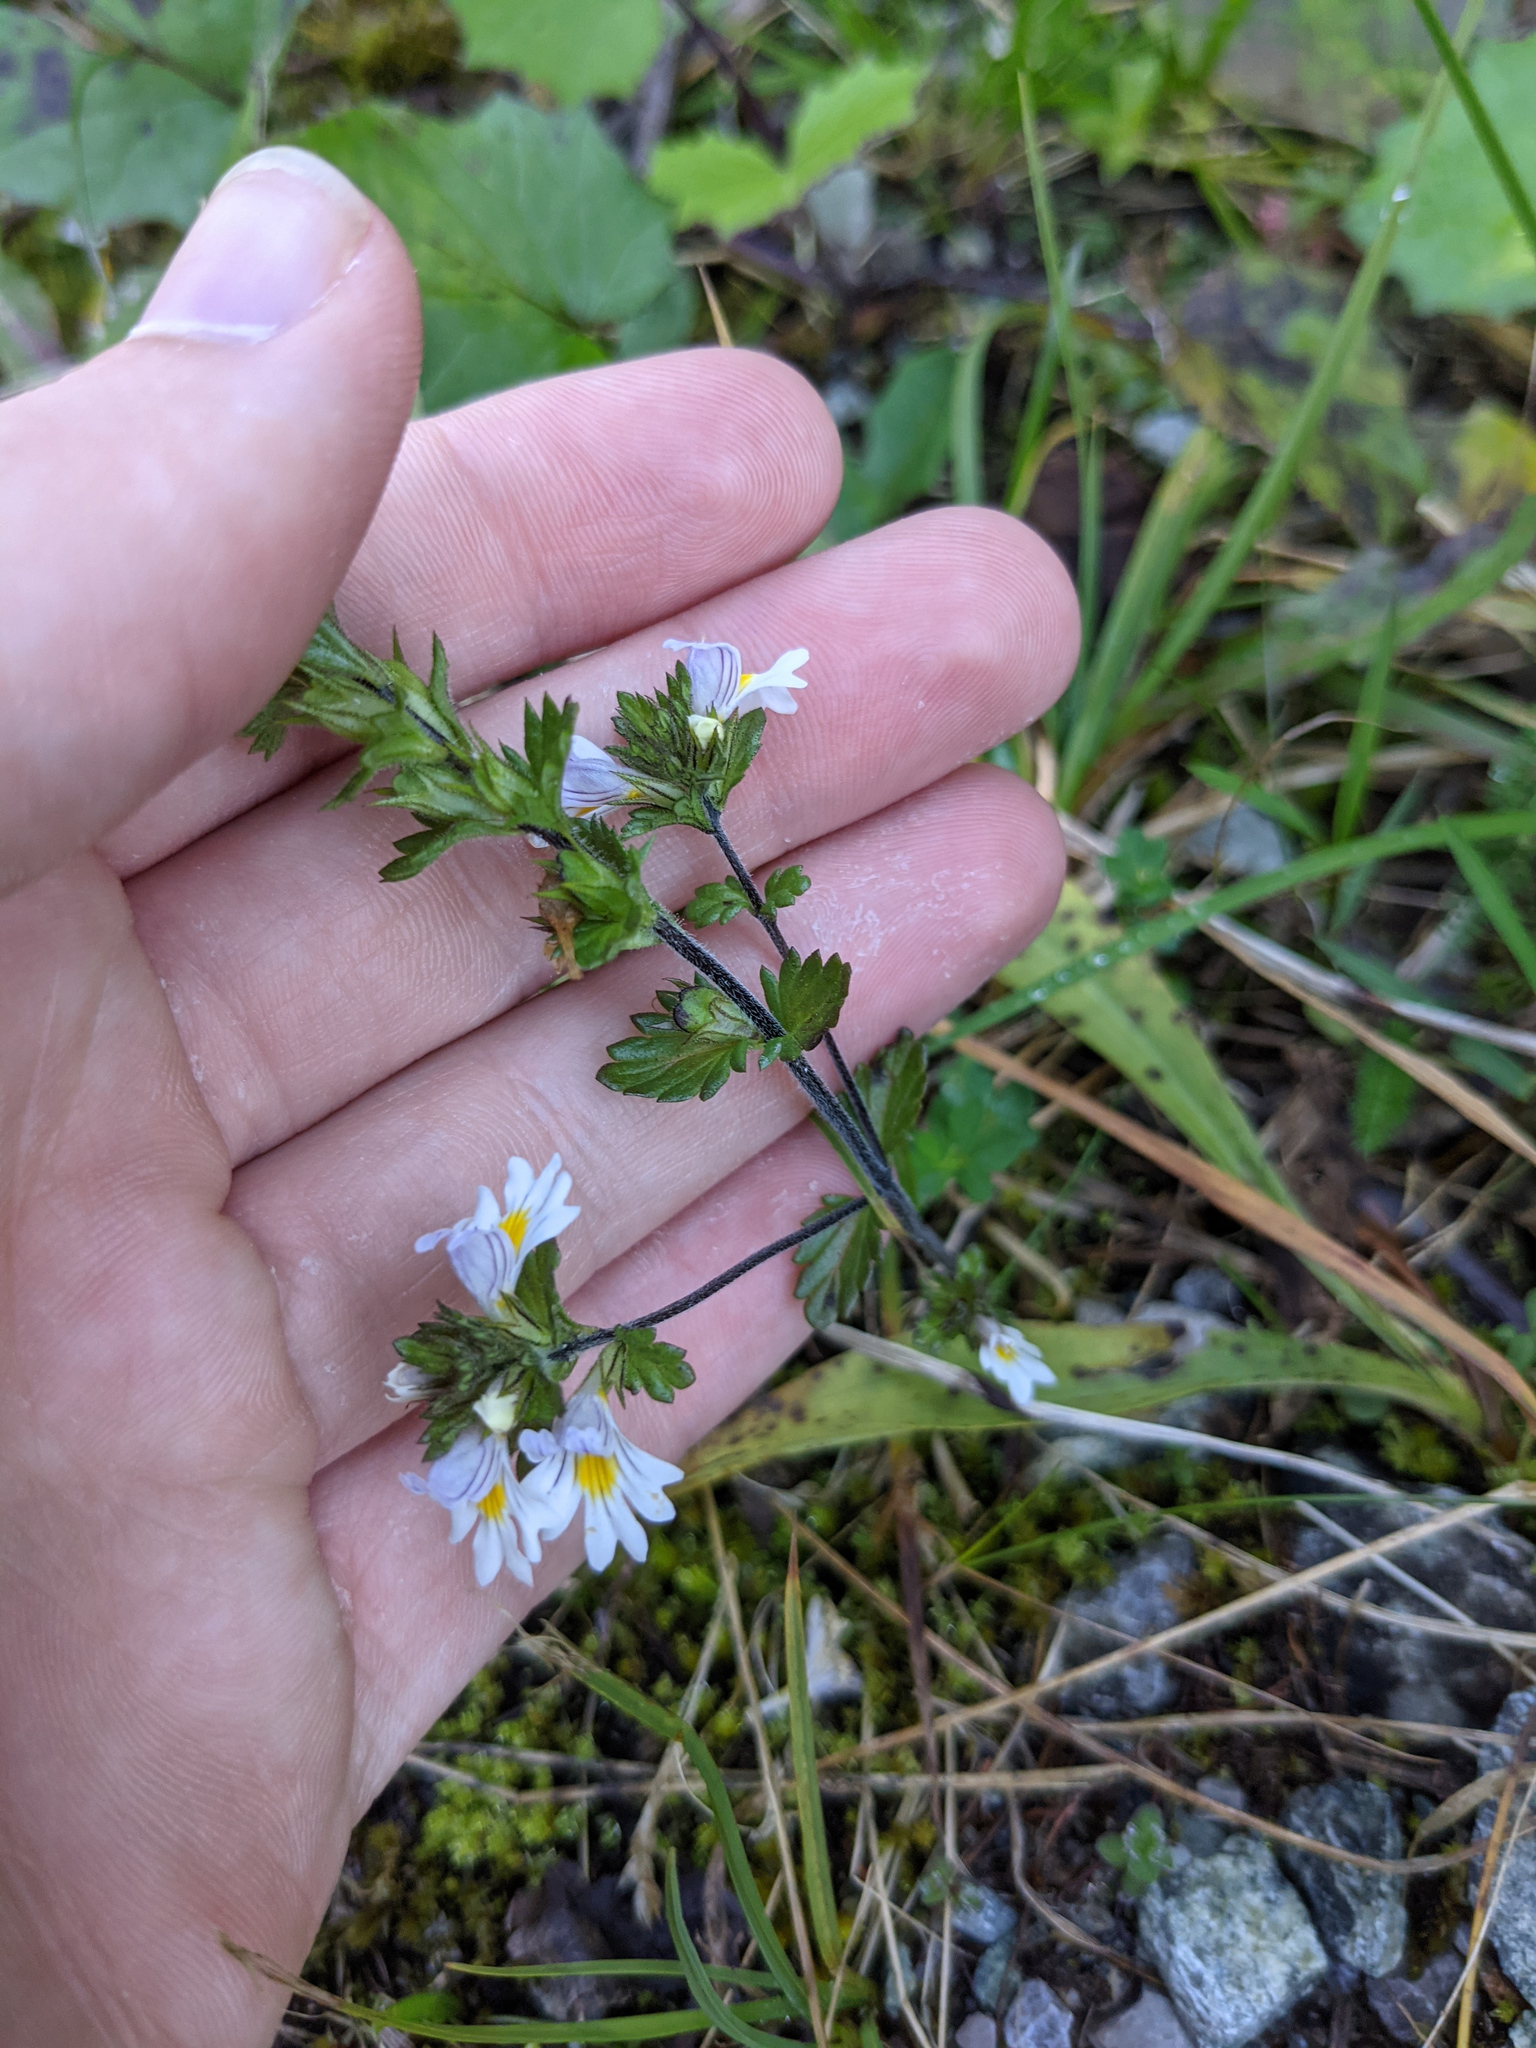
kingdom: Plantae
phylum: Tracheophyta
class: Magnoliopsida
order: Lamiales
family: Orobanchaceae
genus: Euphrasia
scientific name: Euphrasia officinalis
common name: Eyebright
